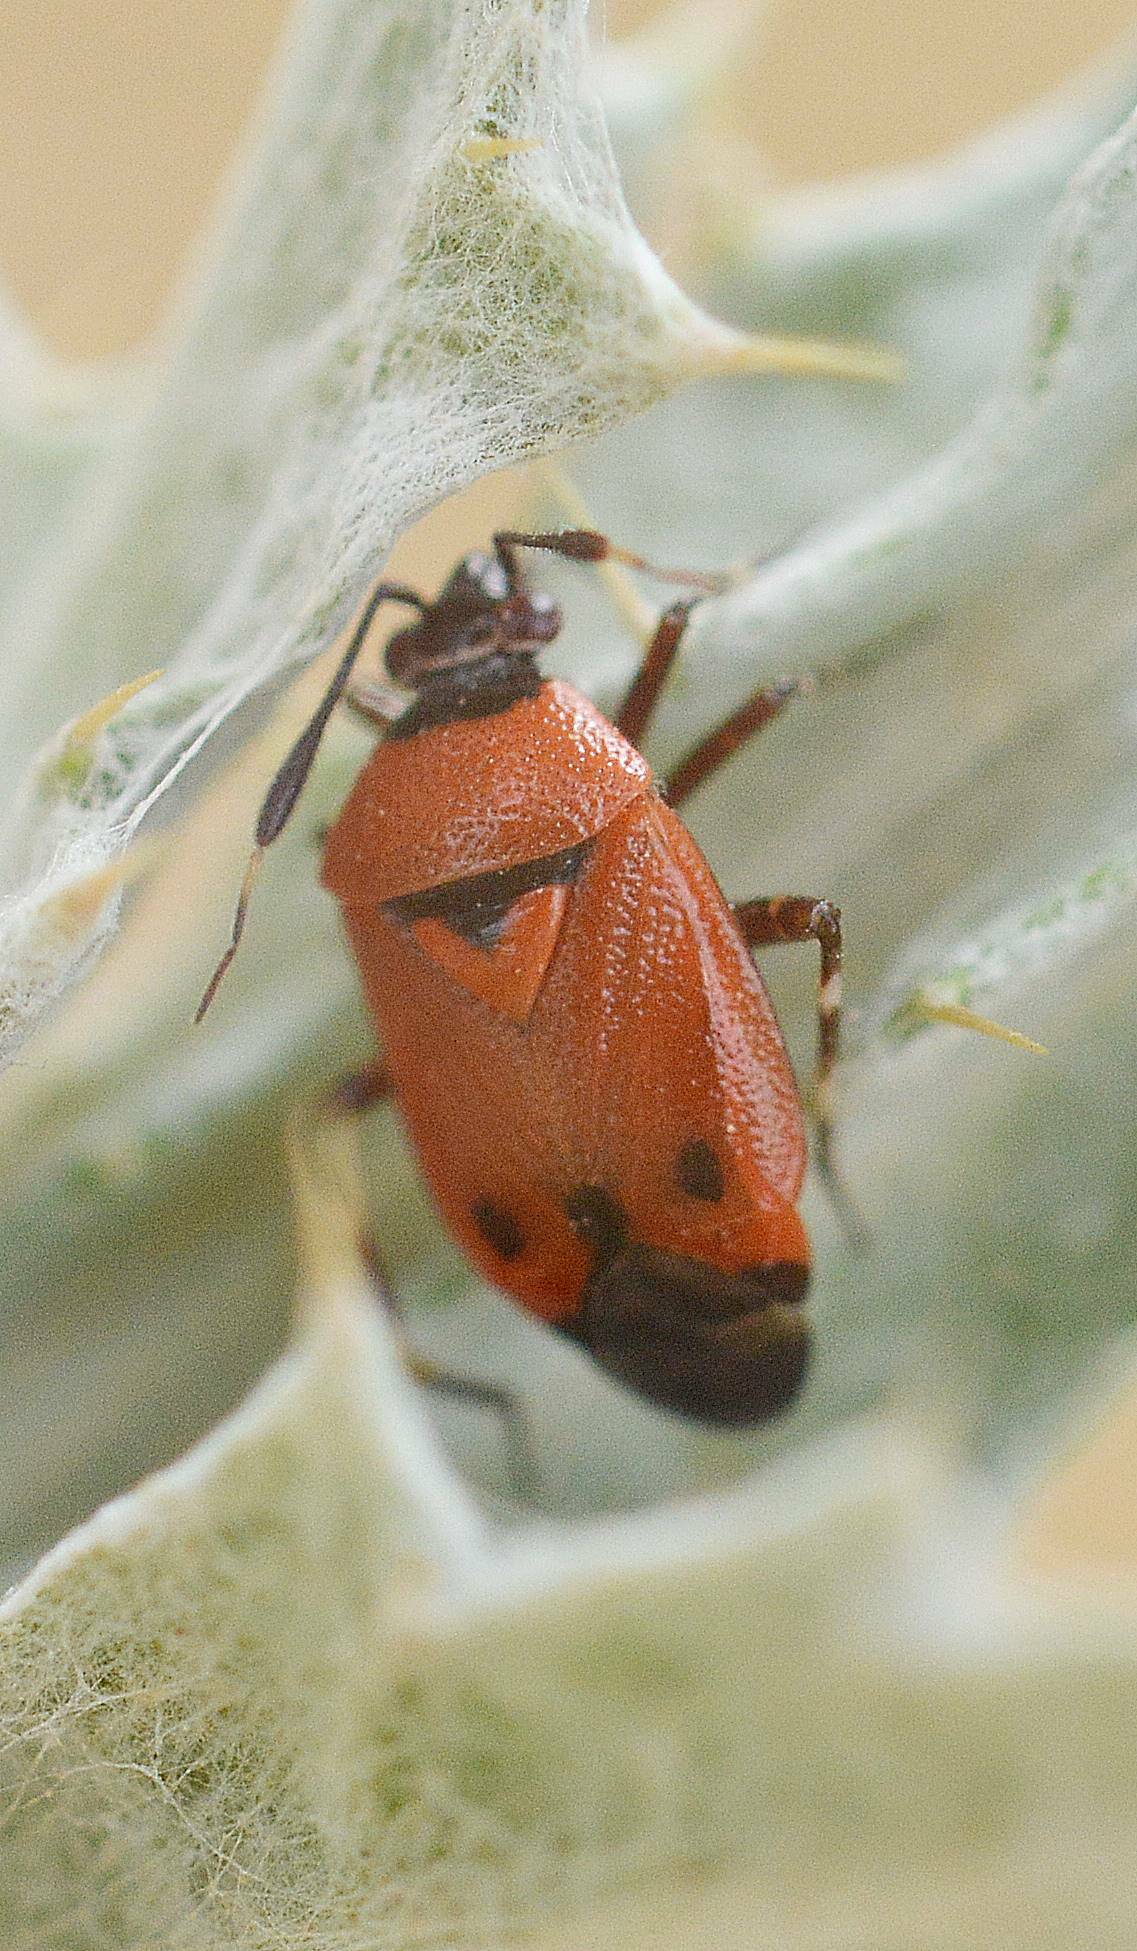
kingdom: Animalia
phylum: Arthropoda
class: Insecta
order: Hemiptera
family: Miridae
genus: Deraeocoris
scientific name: Deraeocoris punctum
